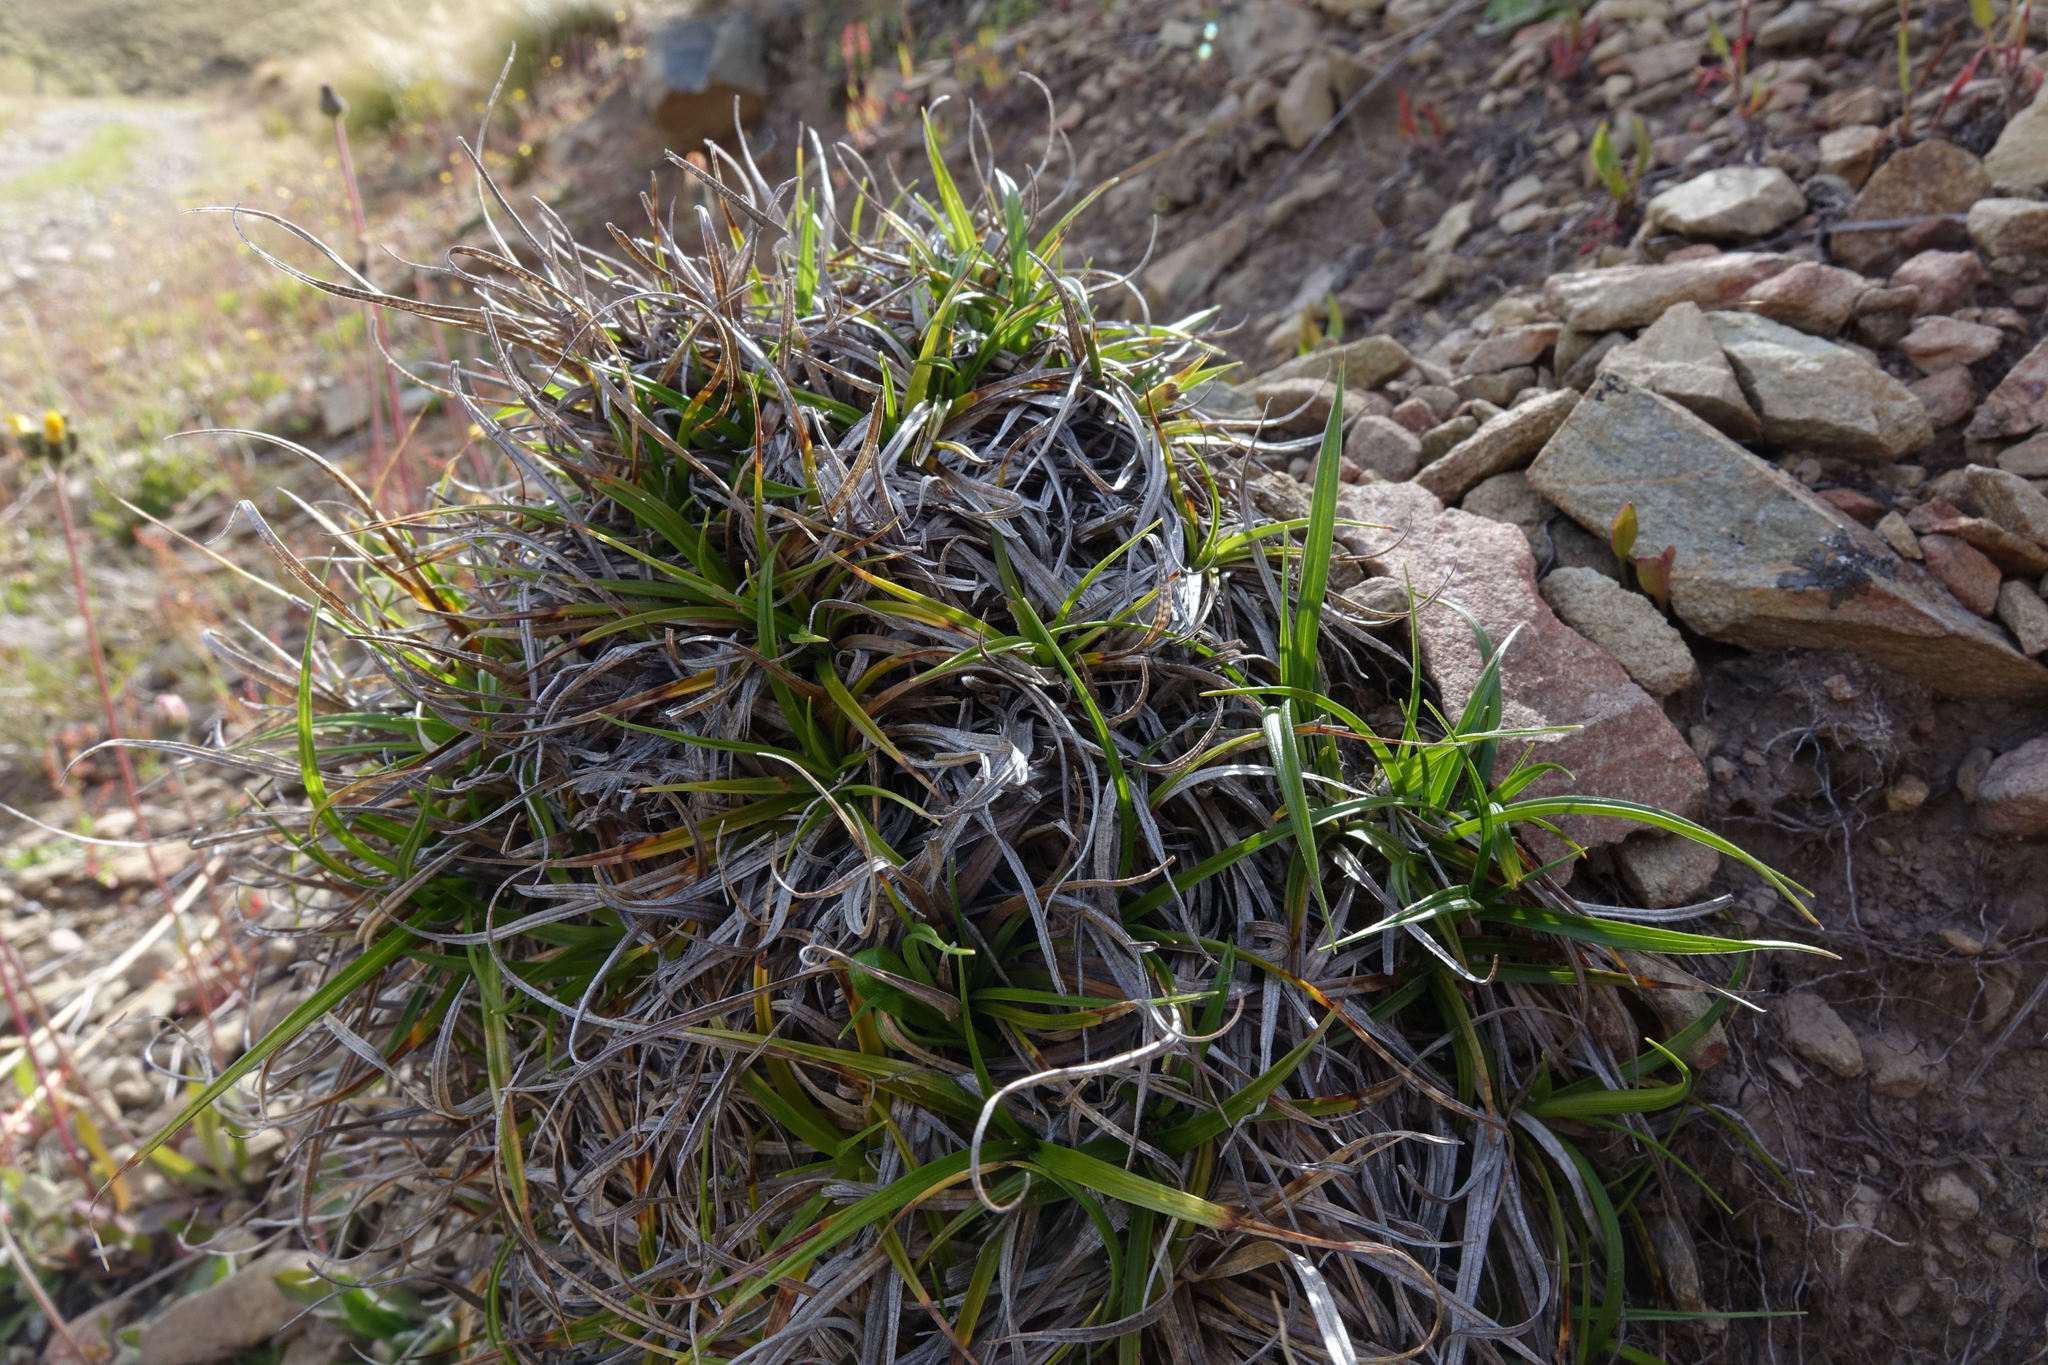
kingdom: Plantae
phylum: Tracheophyta
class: Liliopsida
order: Poales
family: Cyperaceae
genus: Carex
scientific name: Carex breviculmis
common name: Asian shortstem sedge
